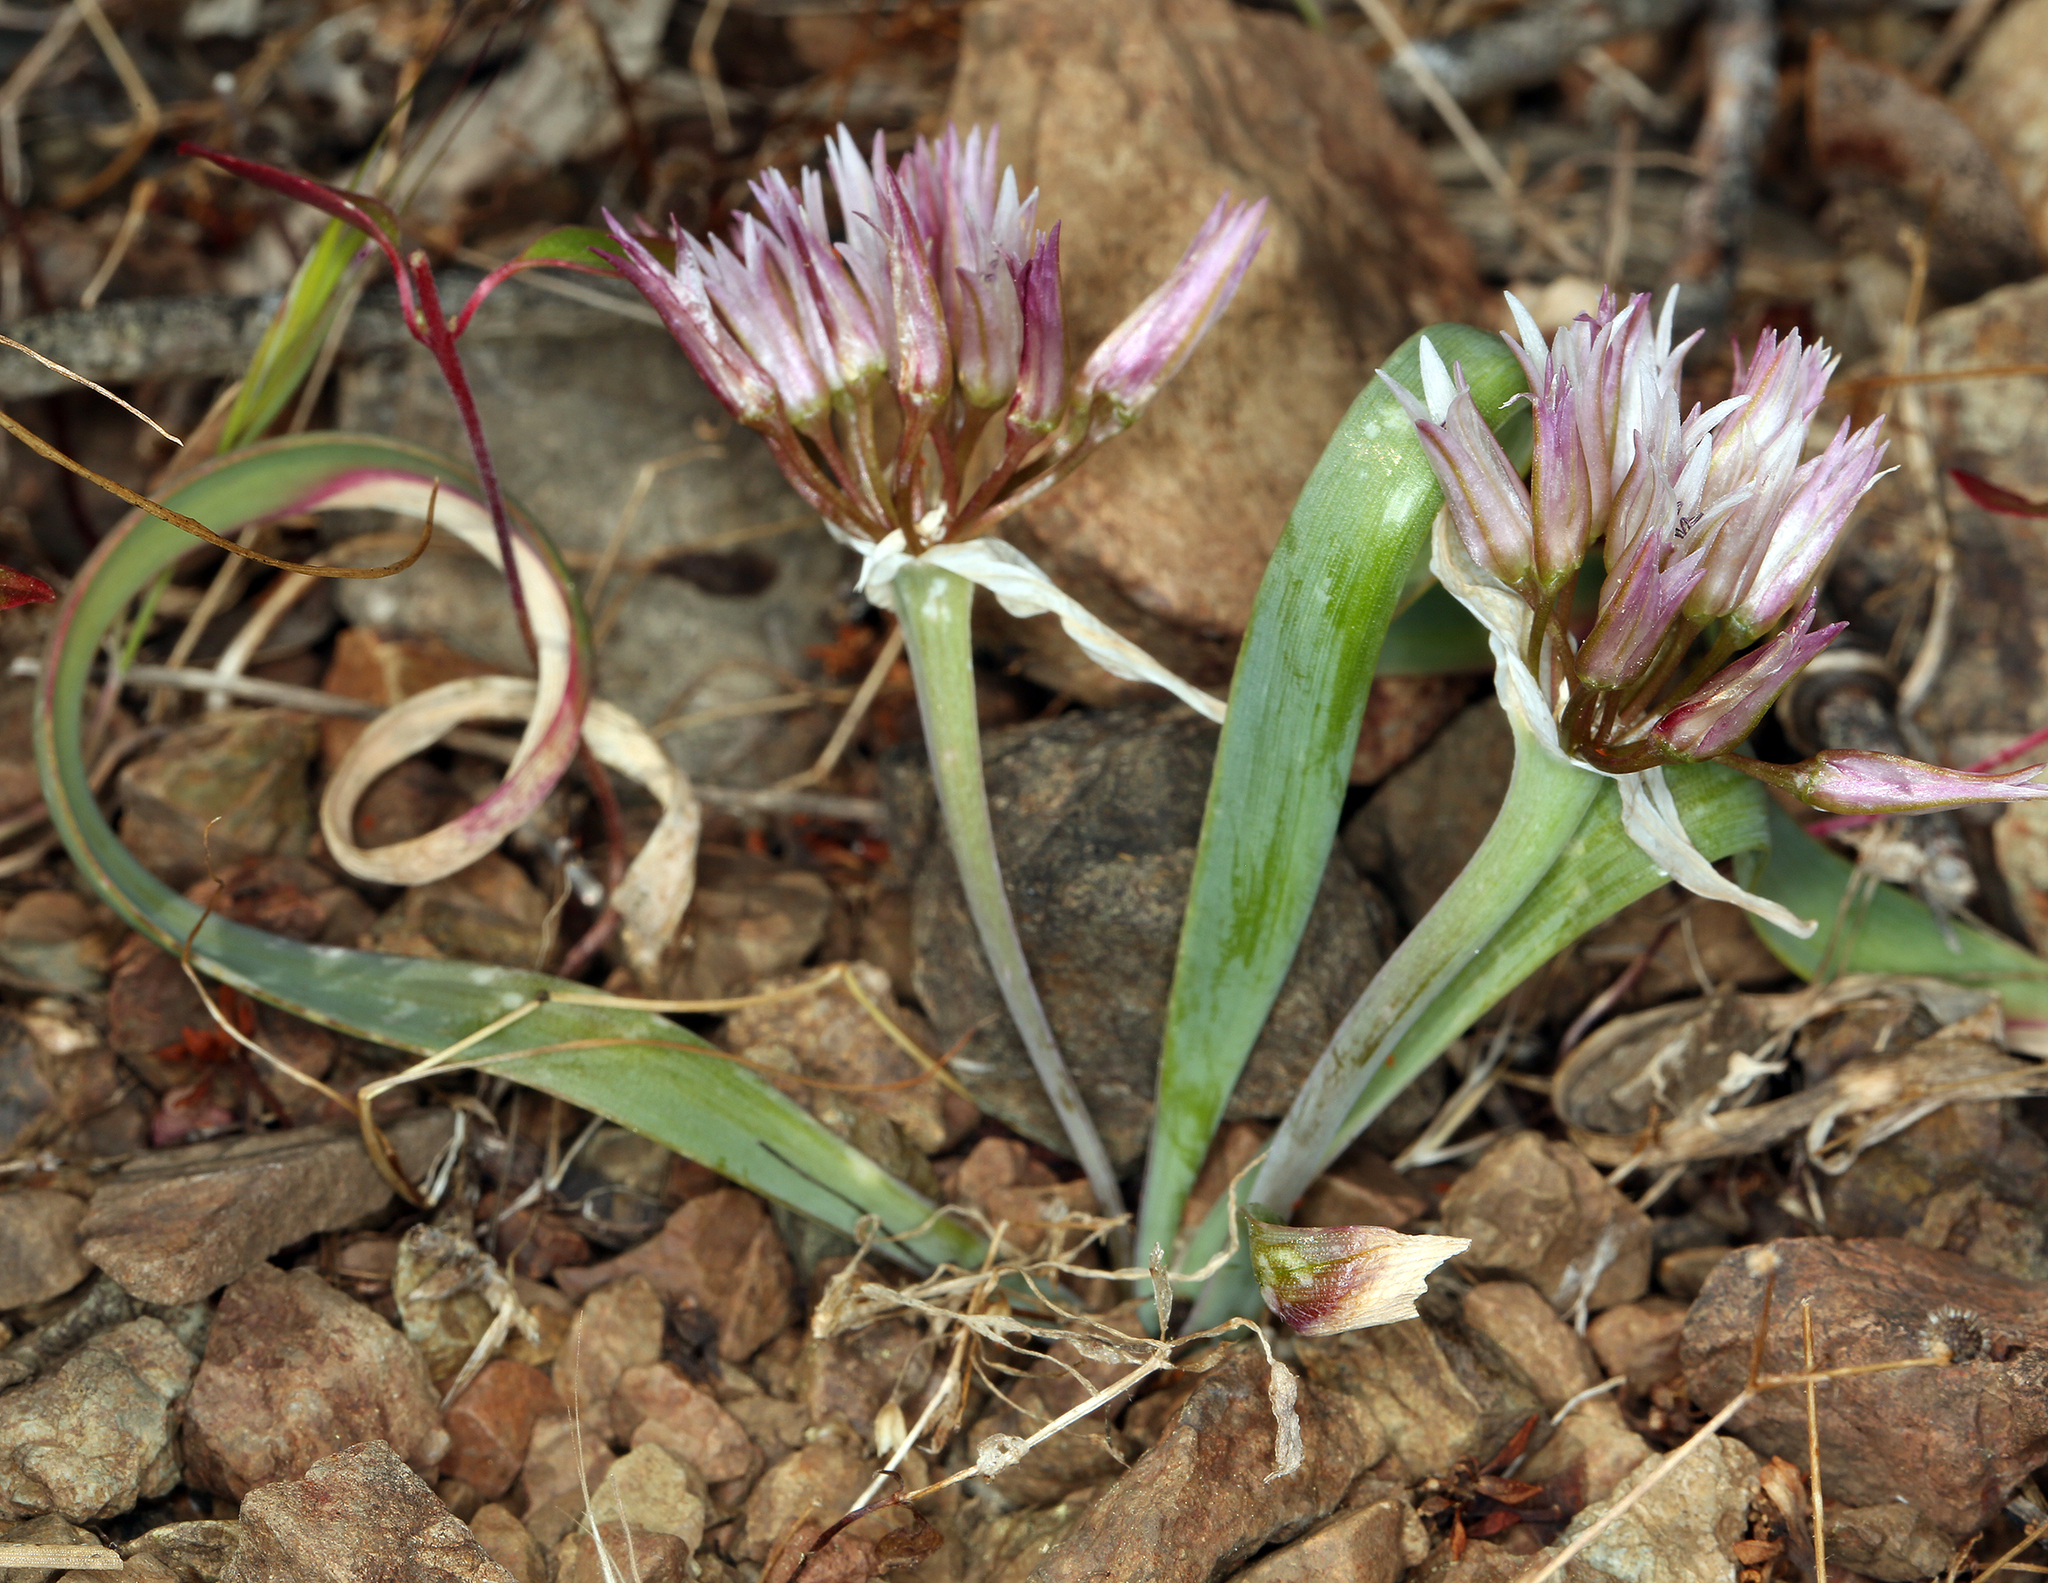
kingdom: Plantae
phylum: Tracheophyta
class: Liliopsida
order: Asparagales
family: Amaryllidaceae
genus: Allium
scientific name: Allium falcifolium
